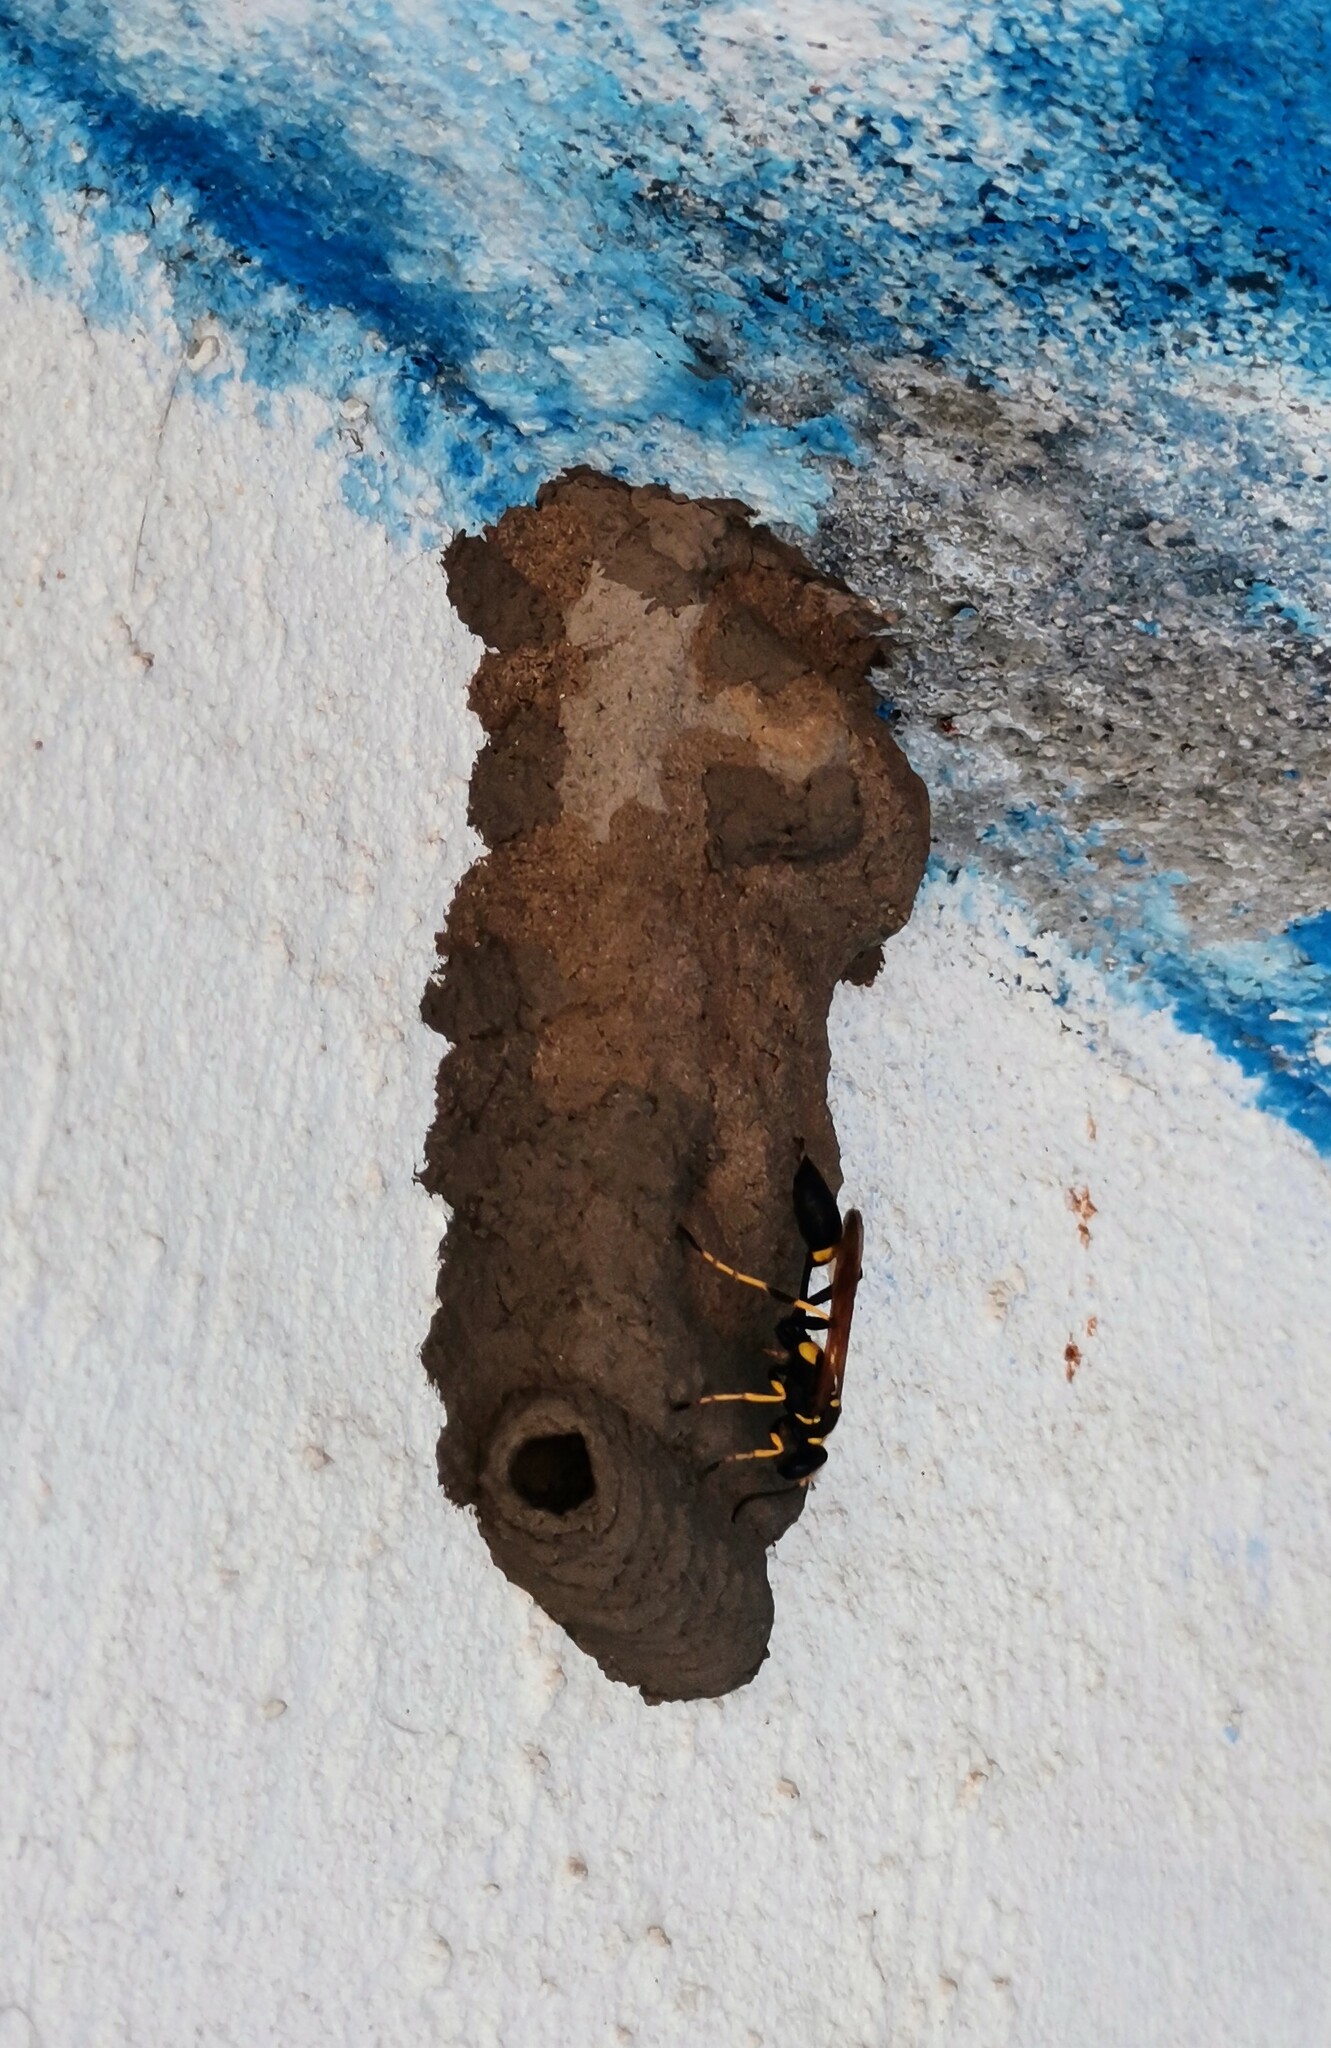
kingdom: Animalia
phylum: Arthropoda
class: Insecta
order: Hymenoptera
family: Sphecidae
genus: Sceliphron
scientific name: Sceliphron caementarium
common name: Mud dauber
